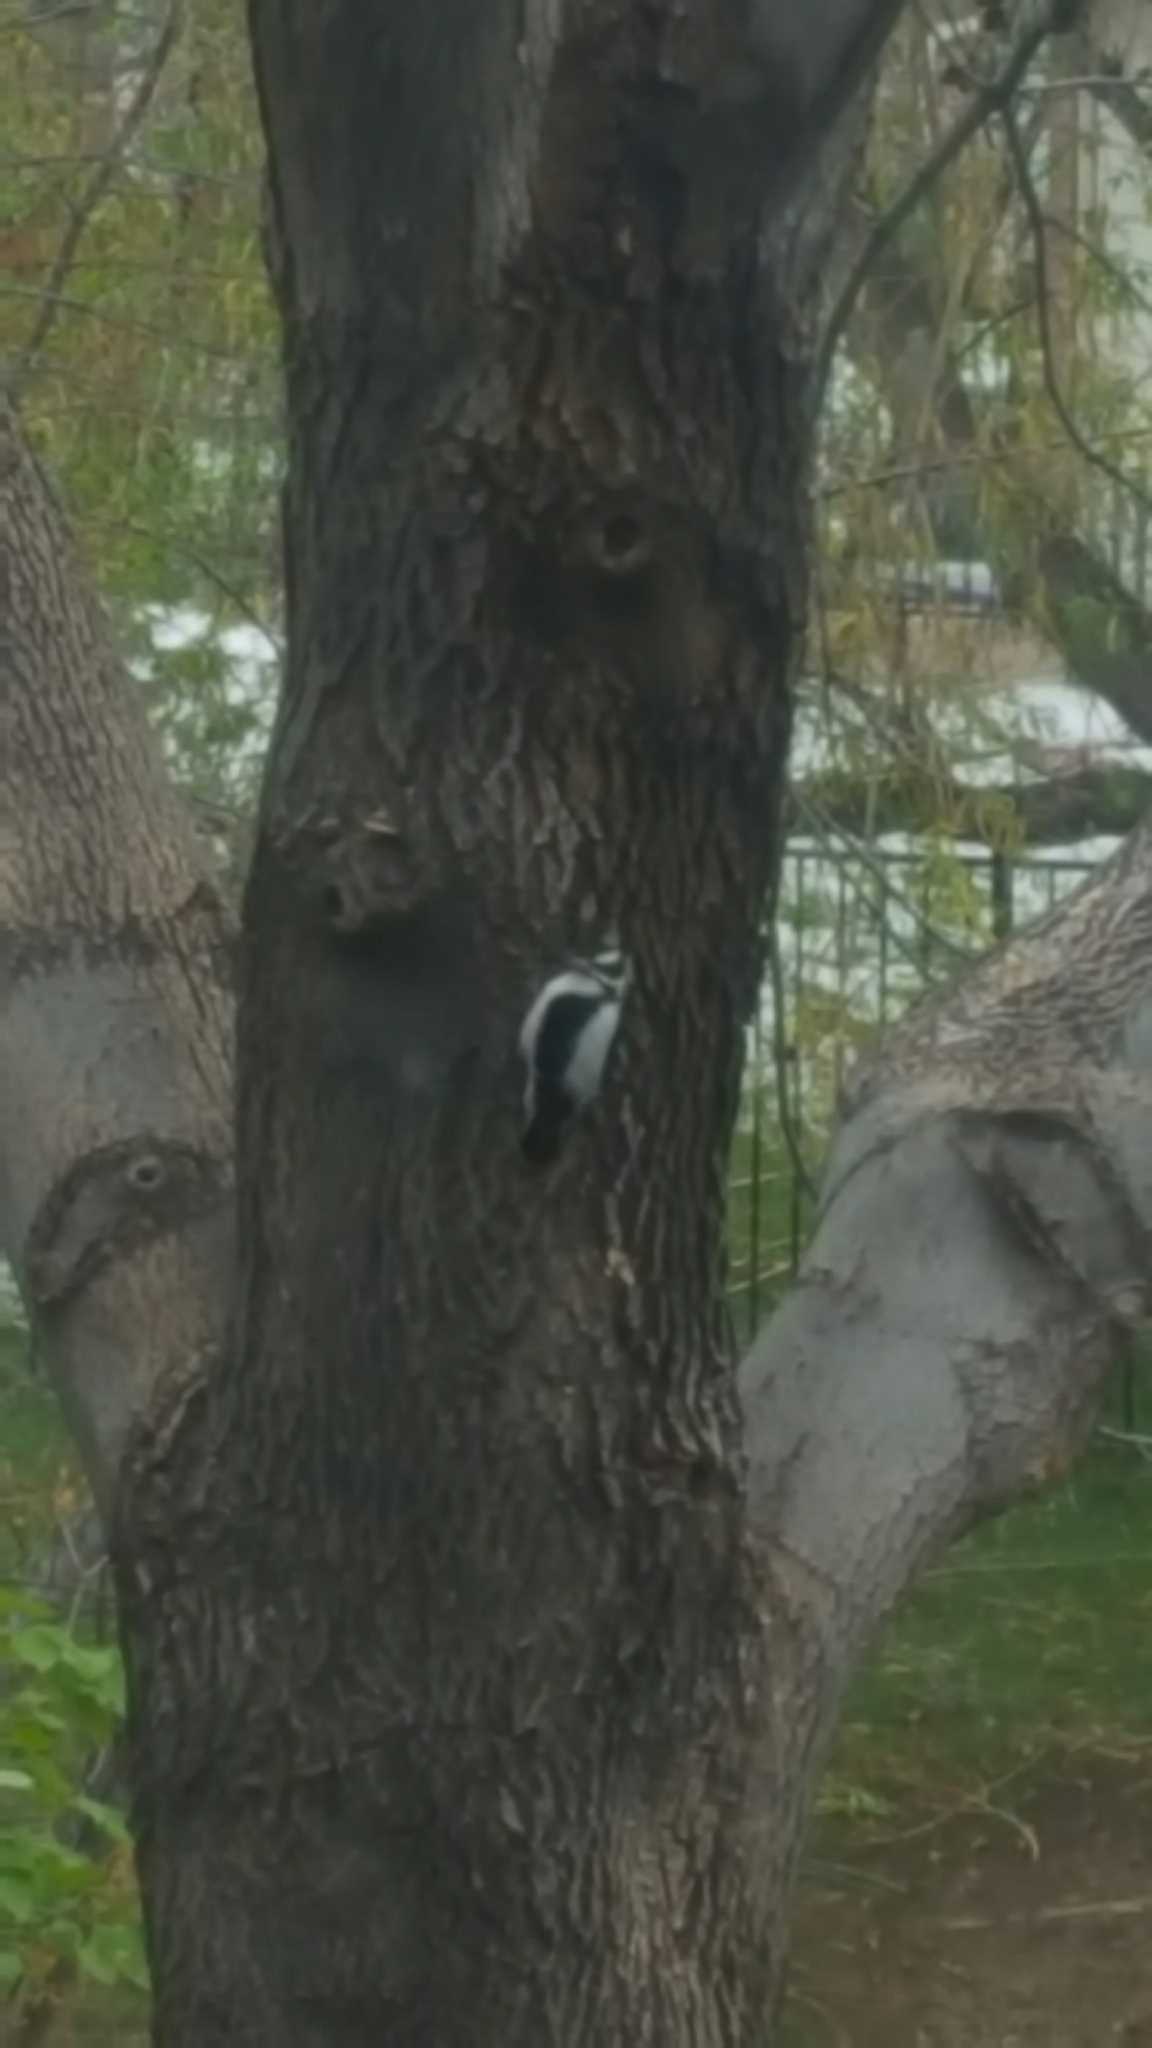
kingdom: Animalia
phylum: Chordata
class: Aves
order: Piciformes
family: Picidae
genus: Dryobates
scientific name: Dryobates pubescens
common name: Downy woodpecker
